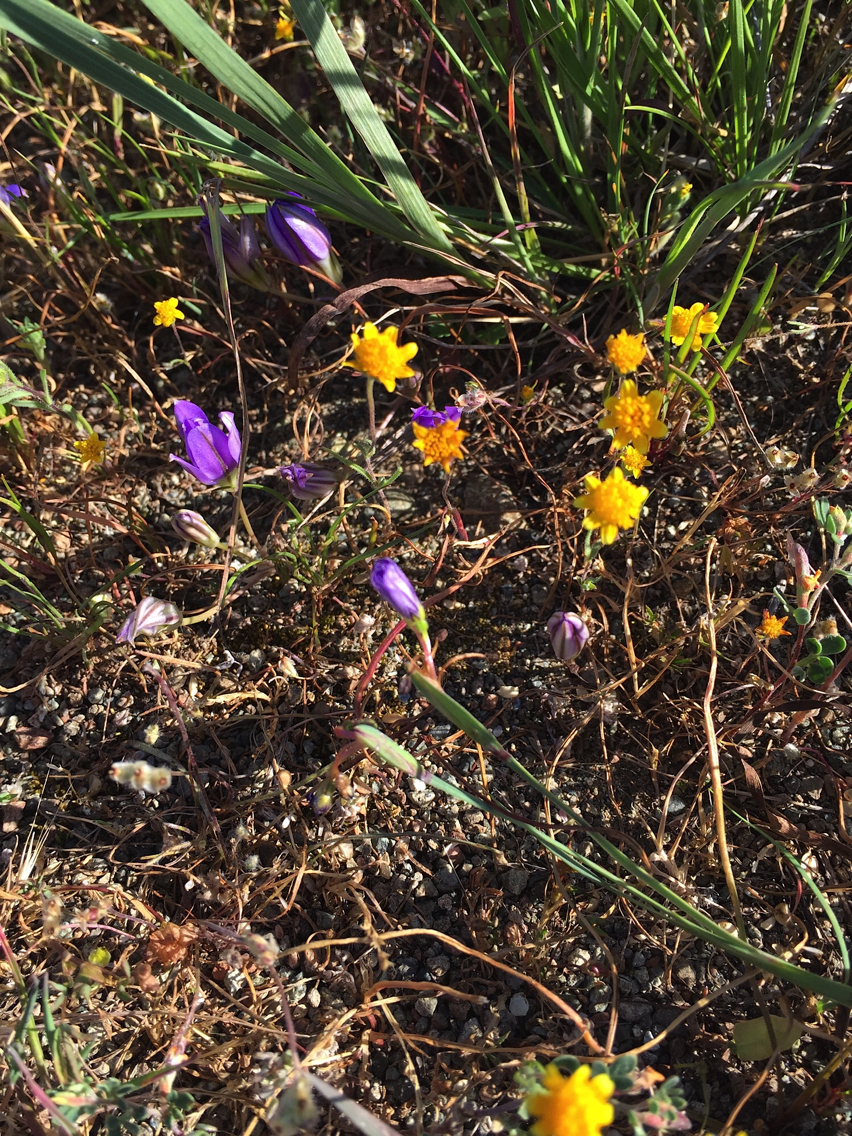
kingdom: Plantae
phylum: Tracheophyta
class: Liliopsida
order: Asparagales
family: Asparagaceae
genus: Brodiaea
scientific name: Brodiaea terrestris
